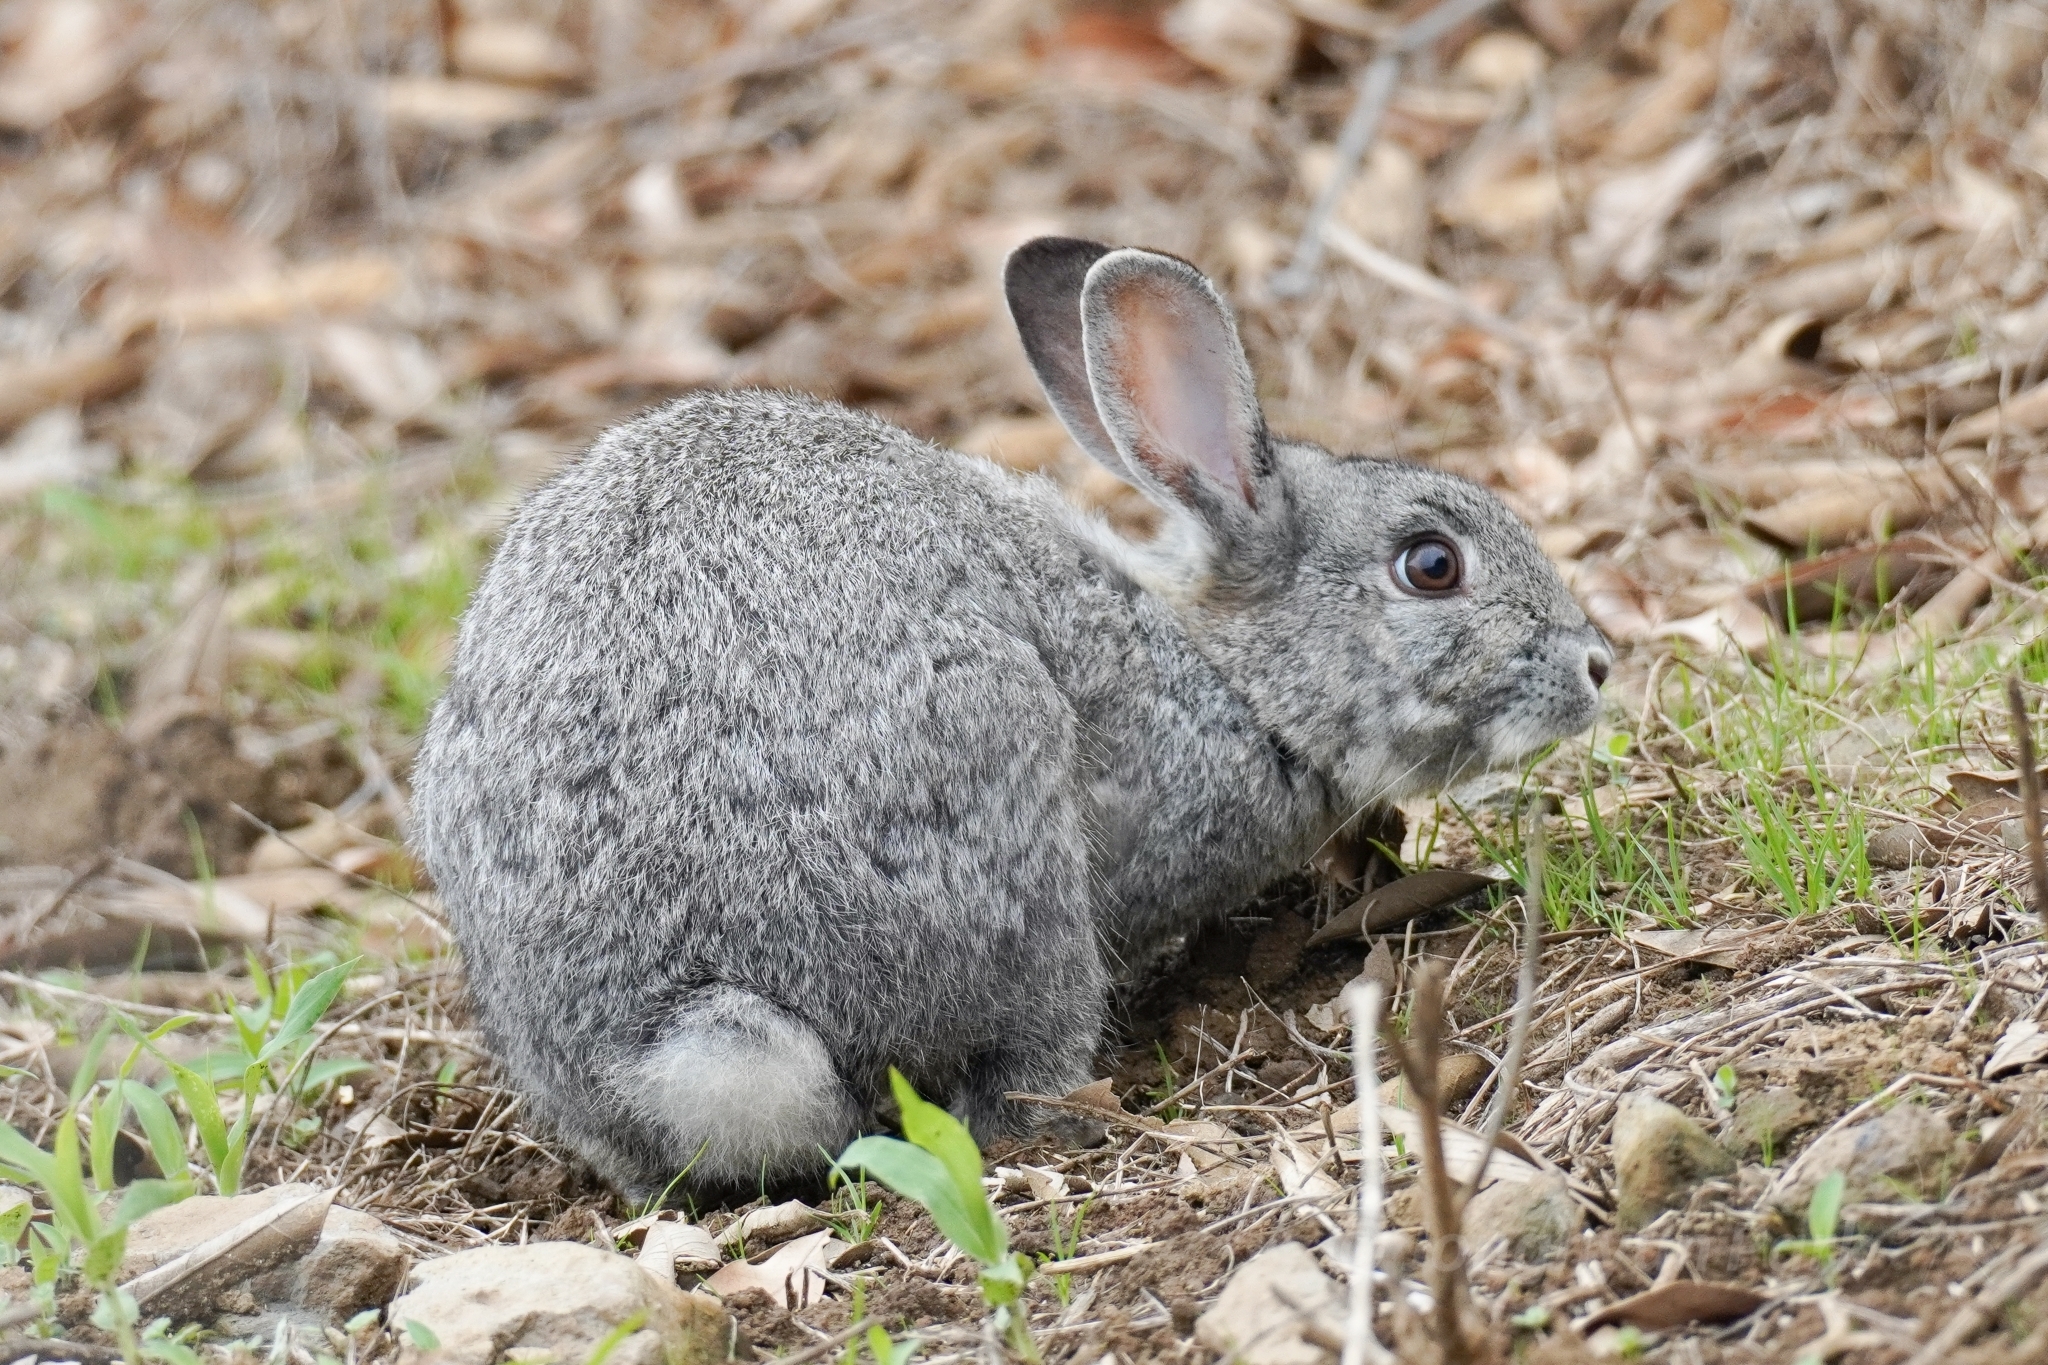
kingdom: Animalia
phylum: Chordata
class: Mammalia
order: Lagomorpha
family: Leporidae
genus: Oryctolagus
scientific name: Oryctolagus cuniculus
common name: European rabbit
